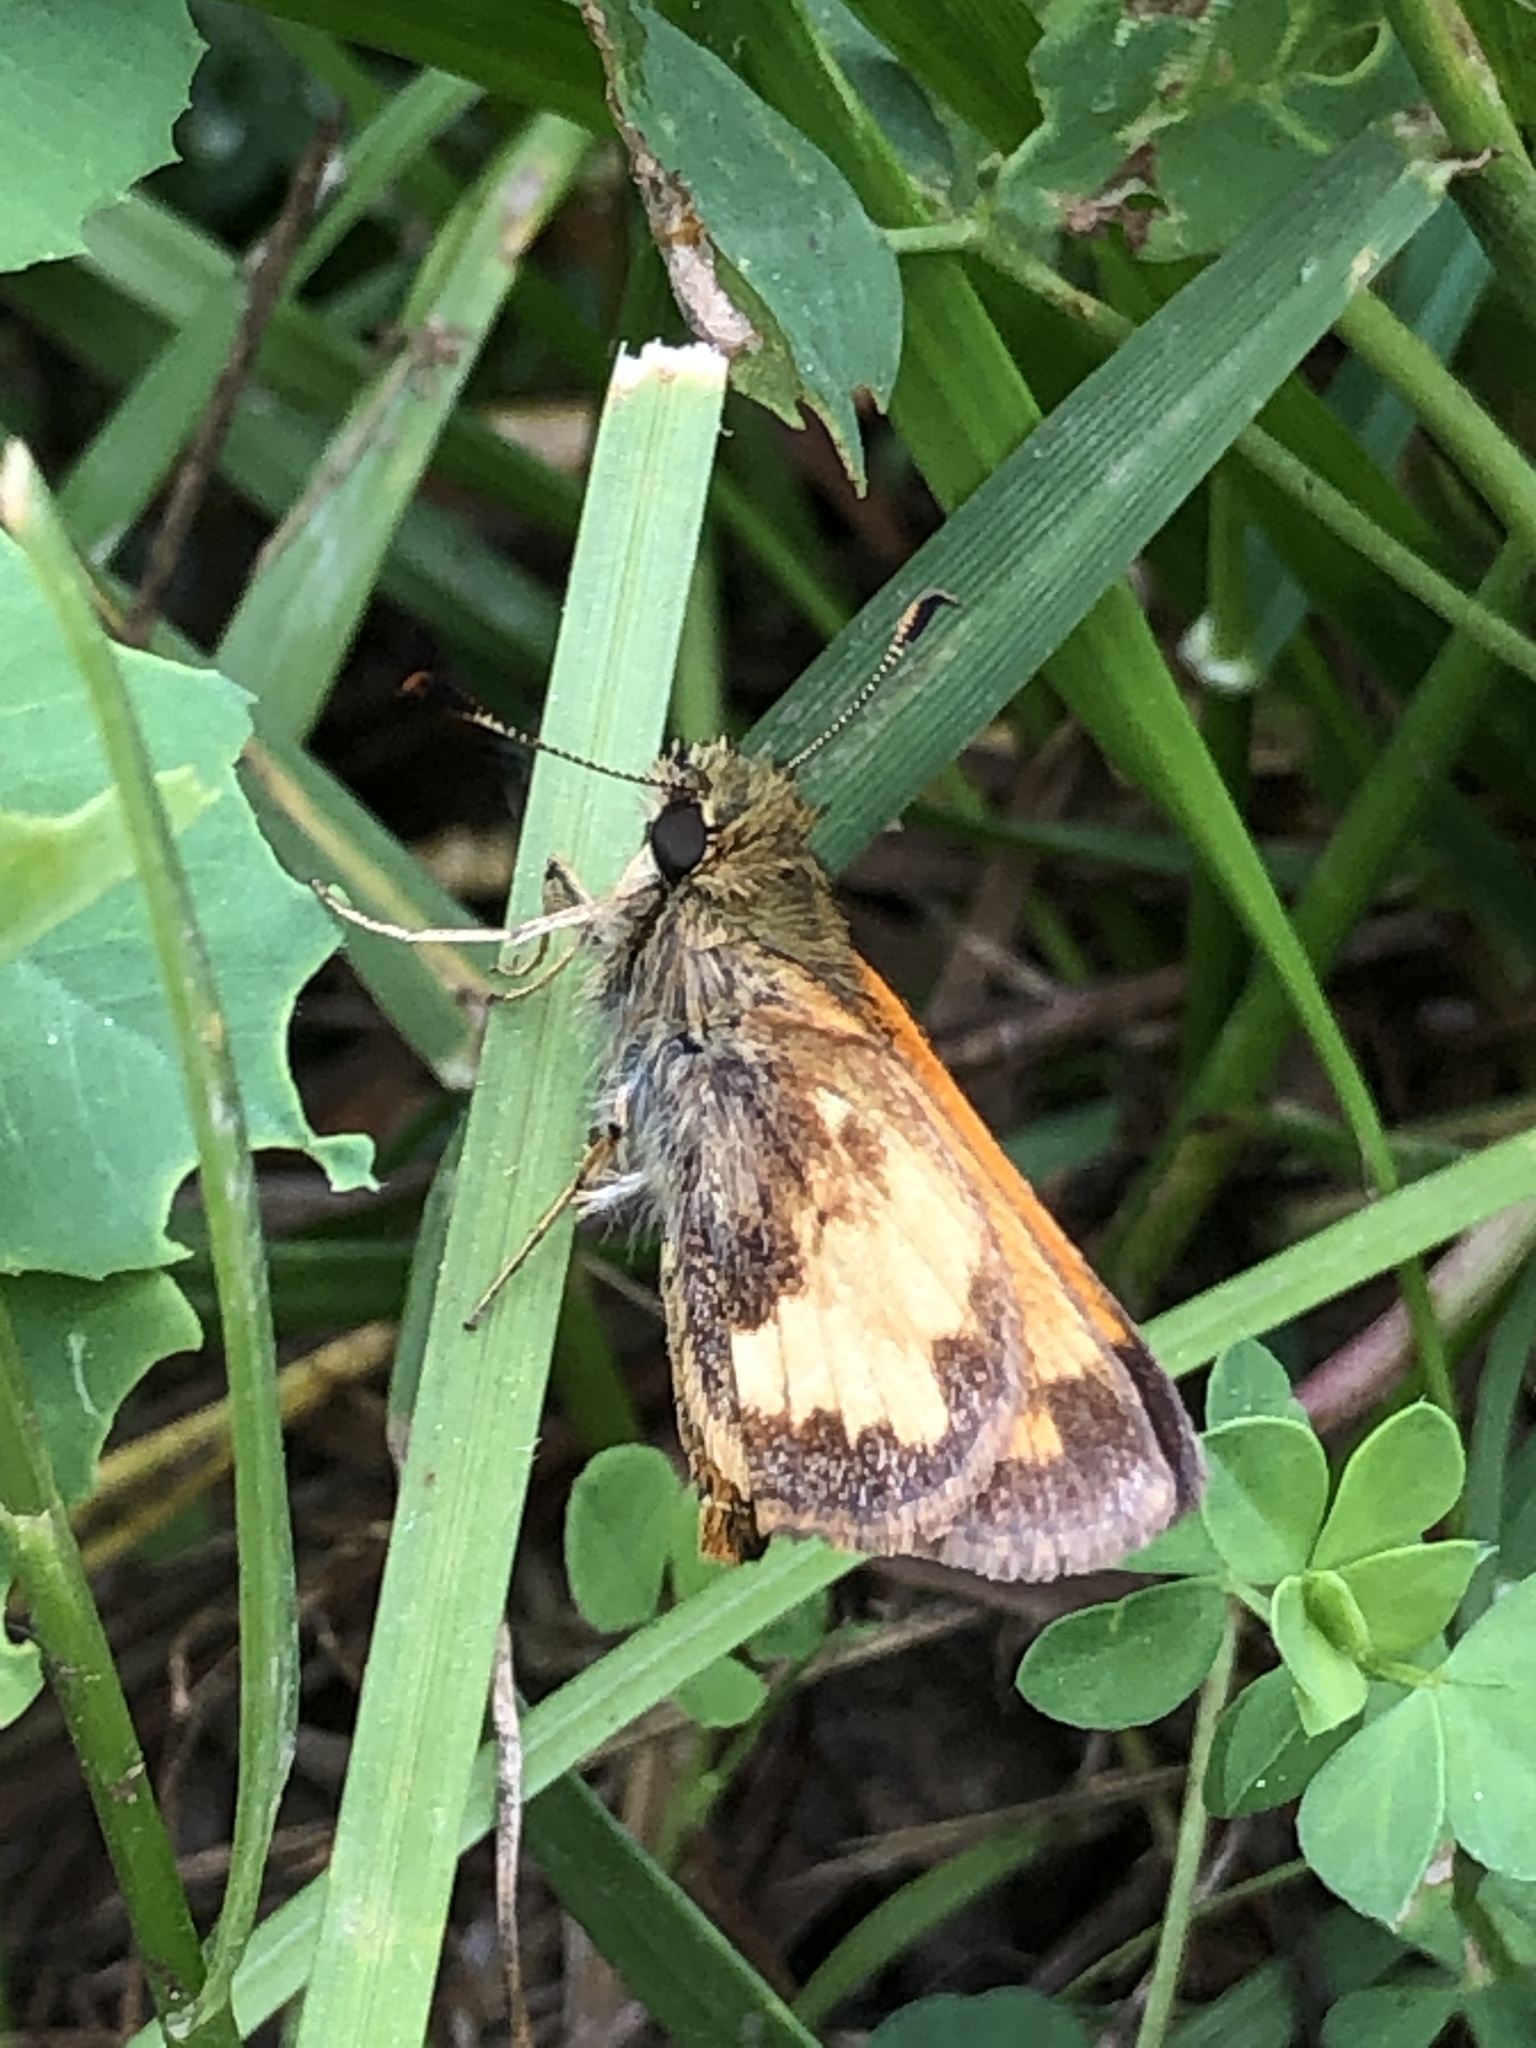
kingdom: Animalia
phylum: Arthropoda
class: Insecta
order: Lepidoptera
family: Hesperiidae
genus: Lon
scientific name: Lon hobomok
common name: Hobomok skipper
